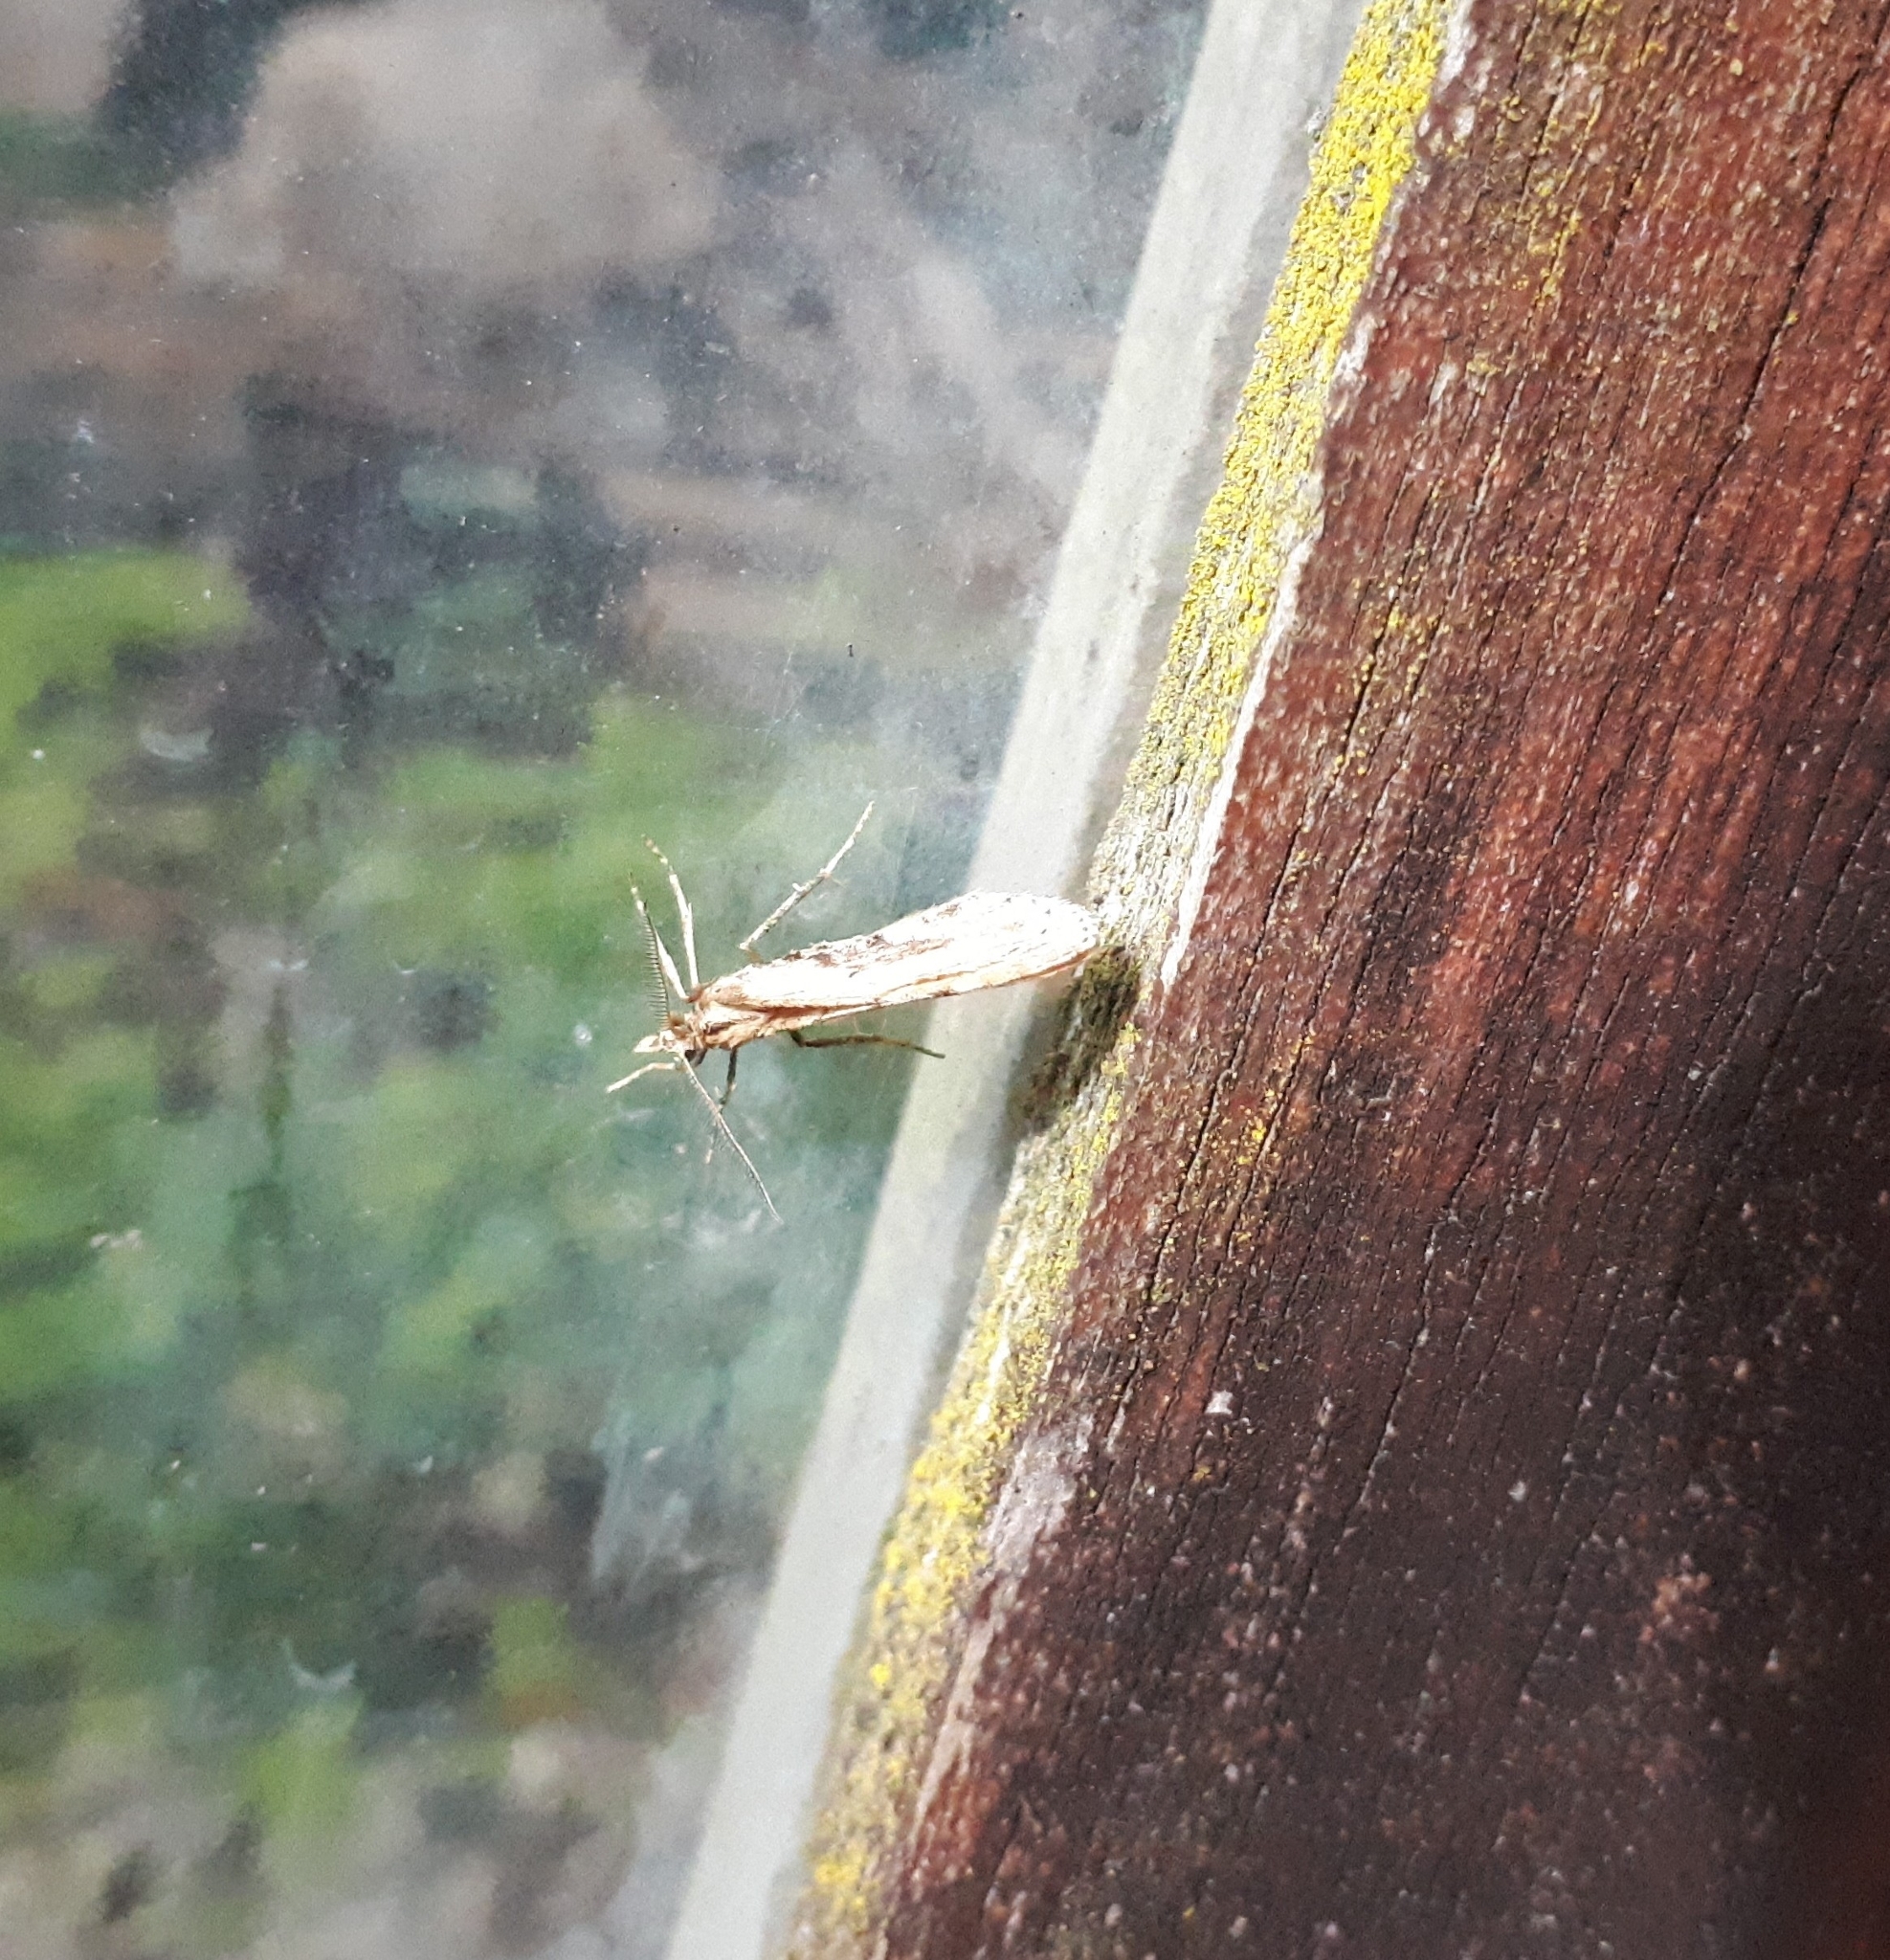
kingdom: Animalia
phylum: Arthropoda
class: Insecta
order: Lepidoptera
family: Geometridae
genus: Asaphodes
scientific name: Asaphodes aegrota
